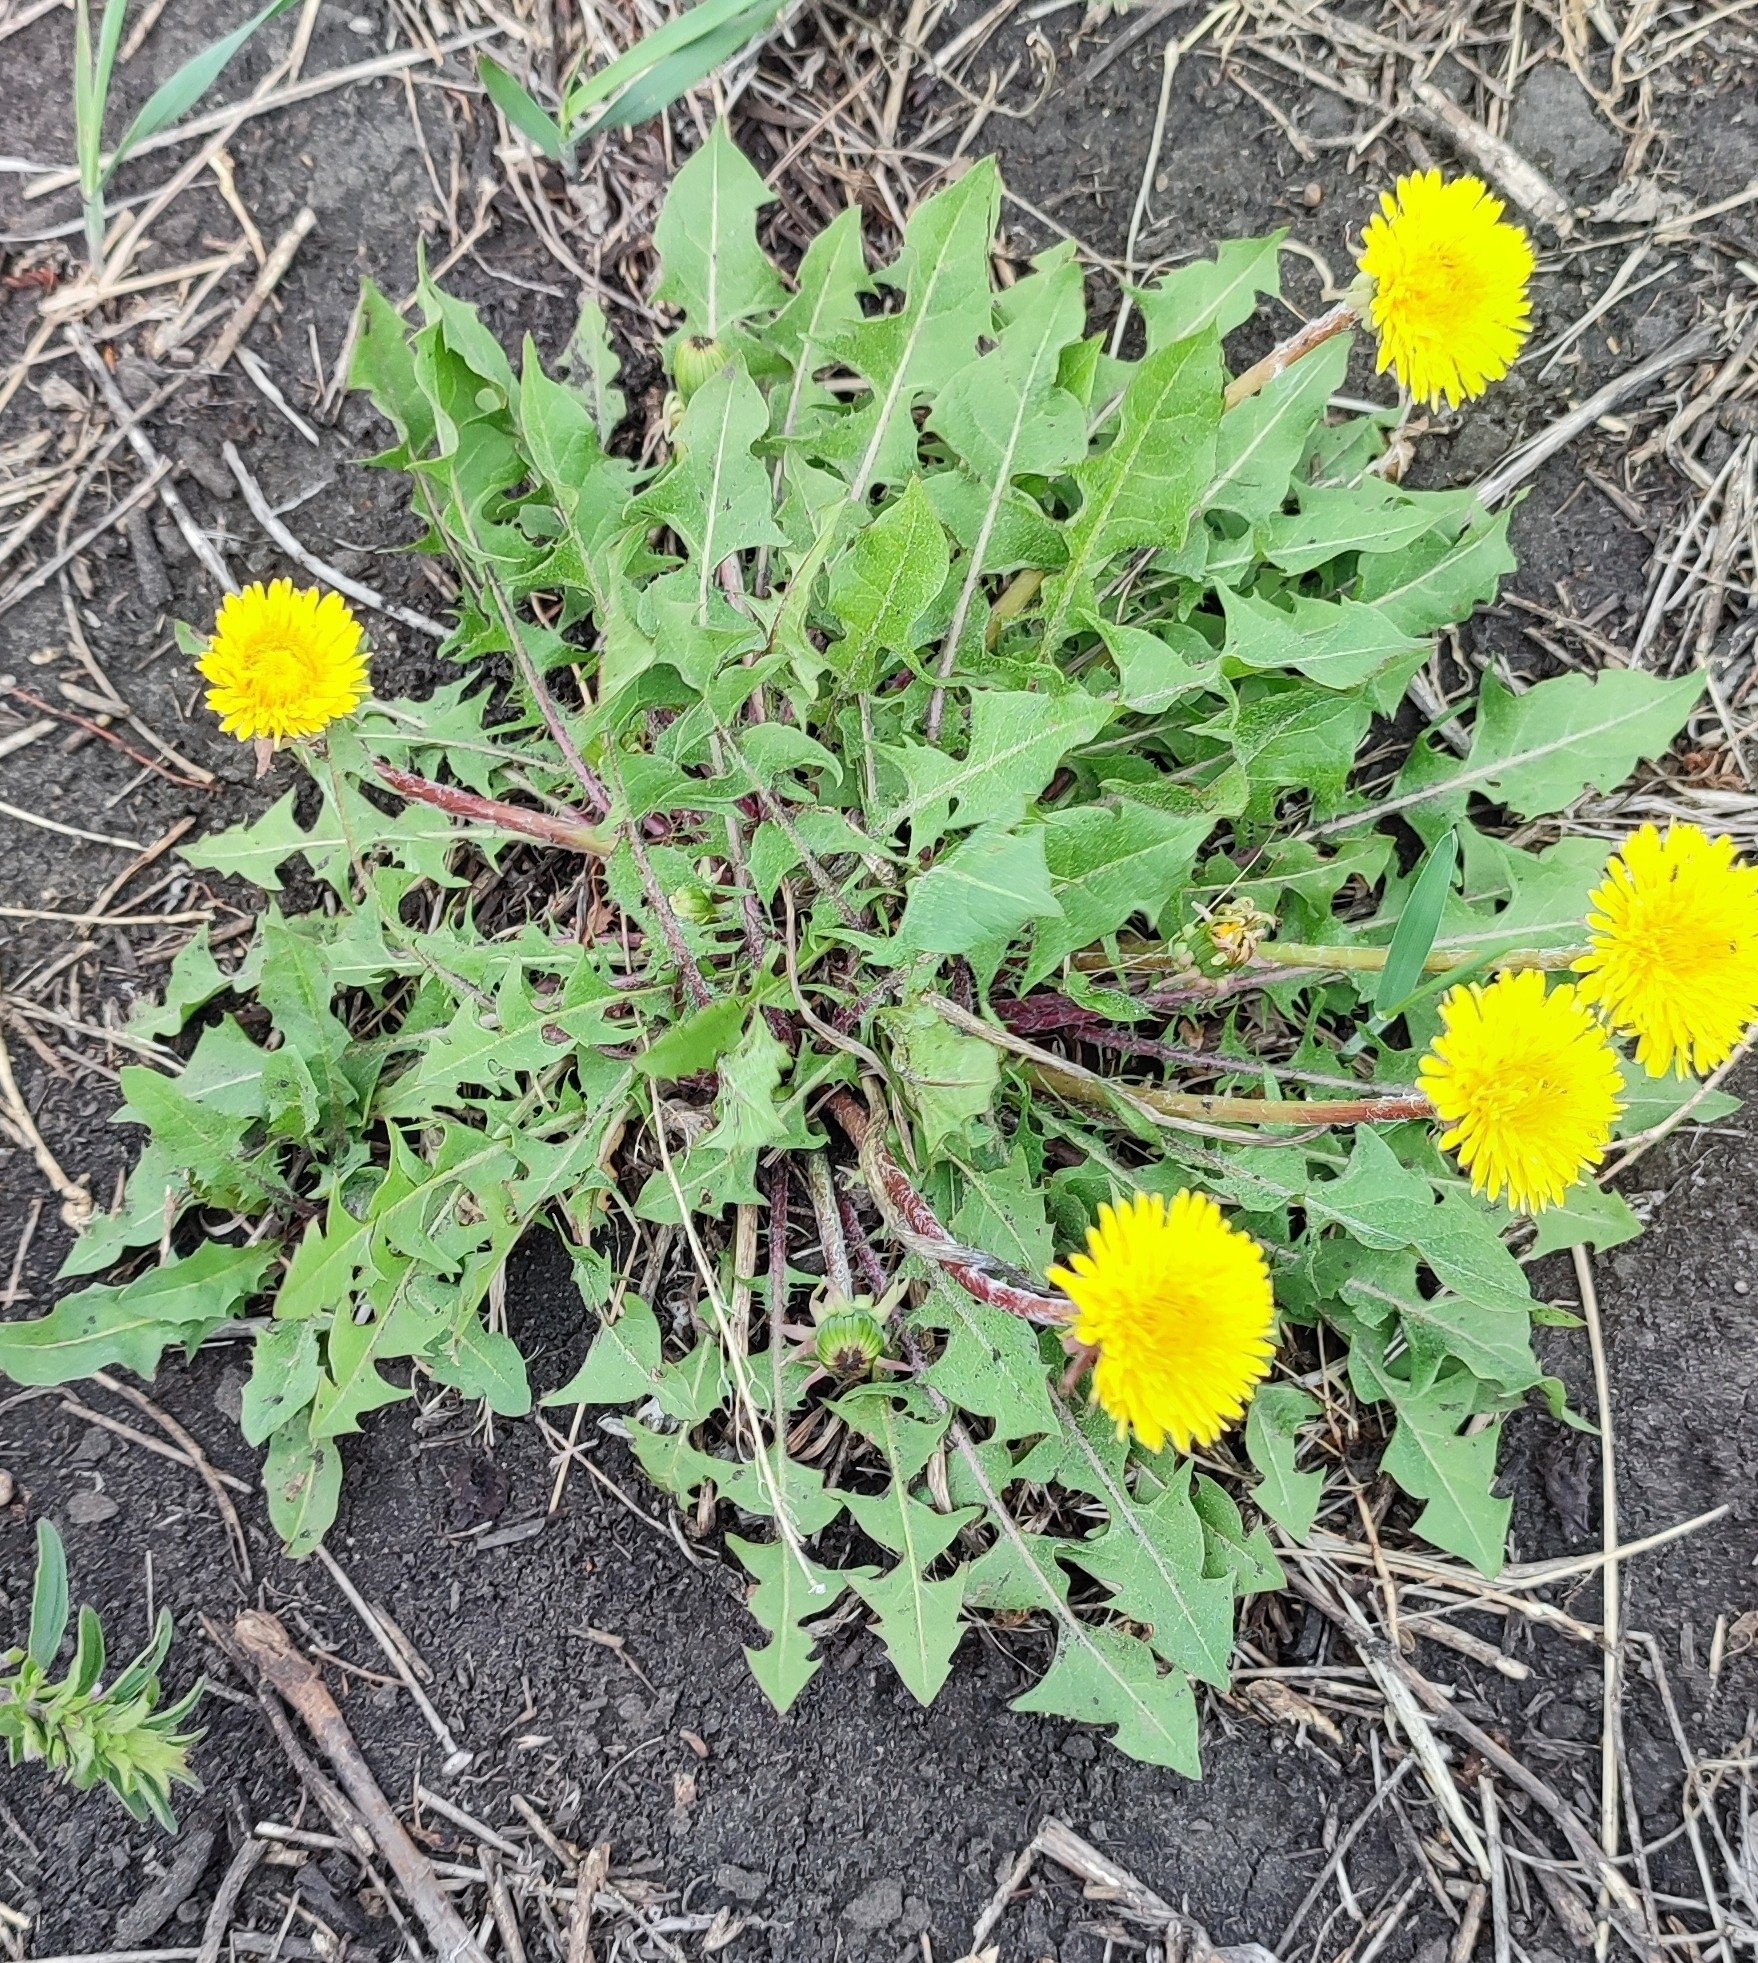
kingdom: Plantae
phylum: Tracheophyta
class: Magnoliopsida
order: Asterales
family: Asteraceae
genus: Taraxacum
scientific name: Taraxacum officinale
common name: Common dandelion
